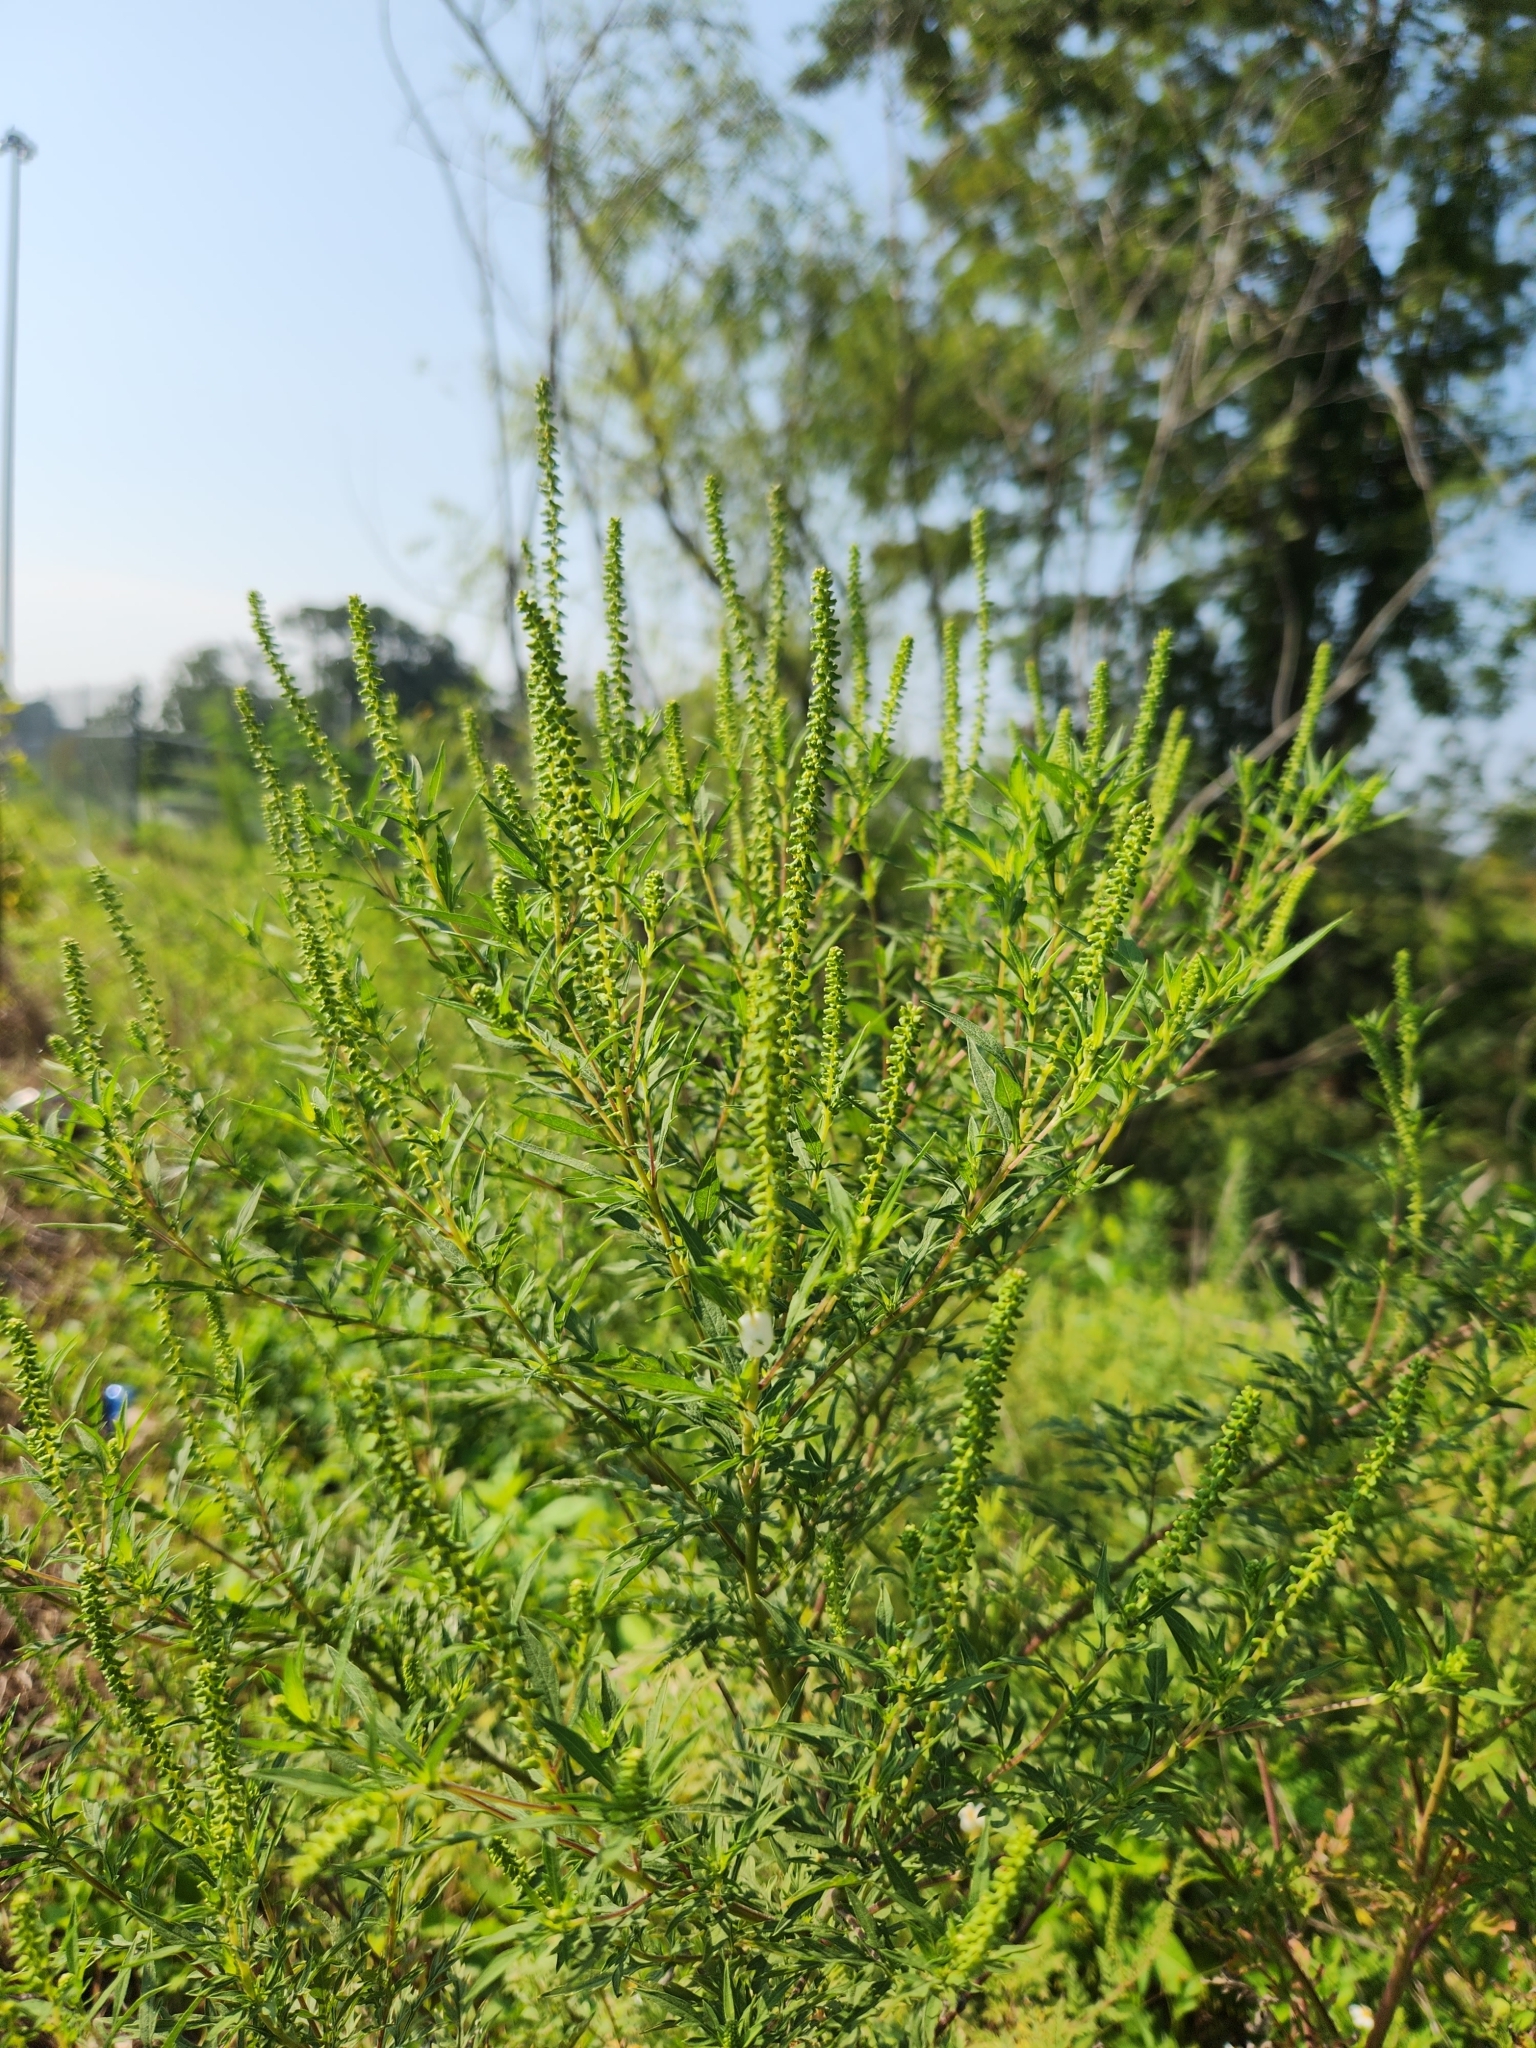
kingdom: Plantae
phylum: Tracheophyta
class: Magnoliopsida
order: Asterales
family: Asteraceae
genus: Ambrosia
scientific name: Ambrosia artemisiifolia
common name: Annual ragweed
